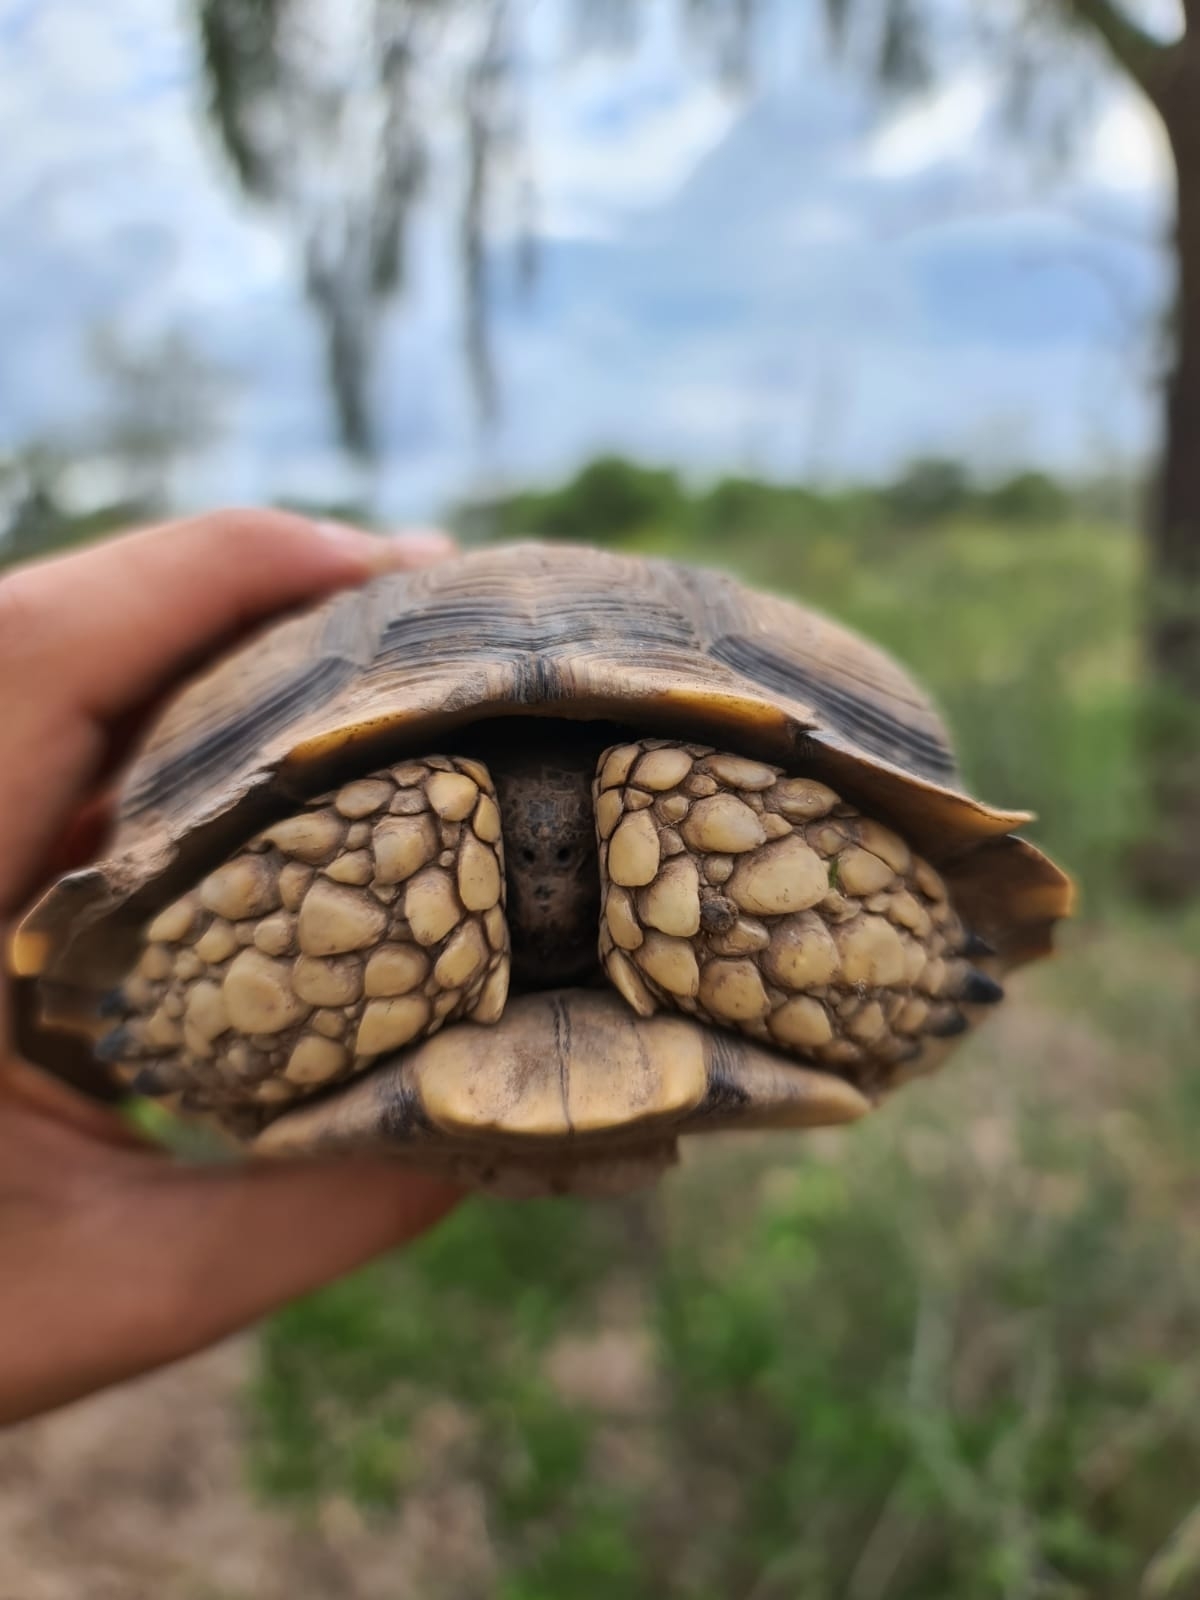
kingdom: Animalia
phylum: Chordata
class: Testudines
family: Testudinidae
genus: Chelonoidis
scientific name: Chelonoidis chilensis
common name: Chaco tortoise
